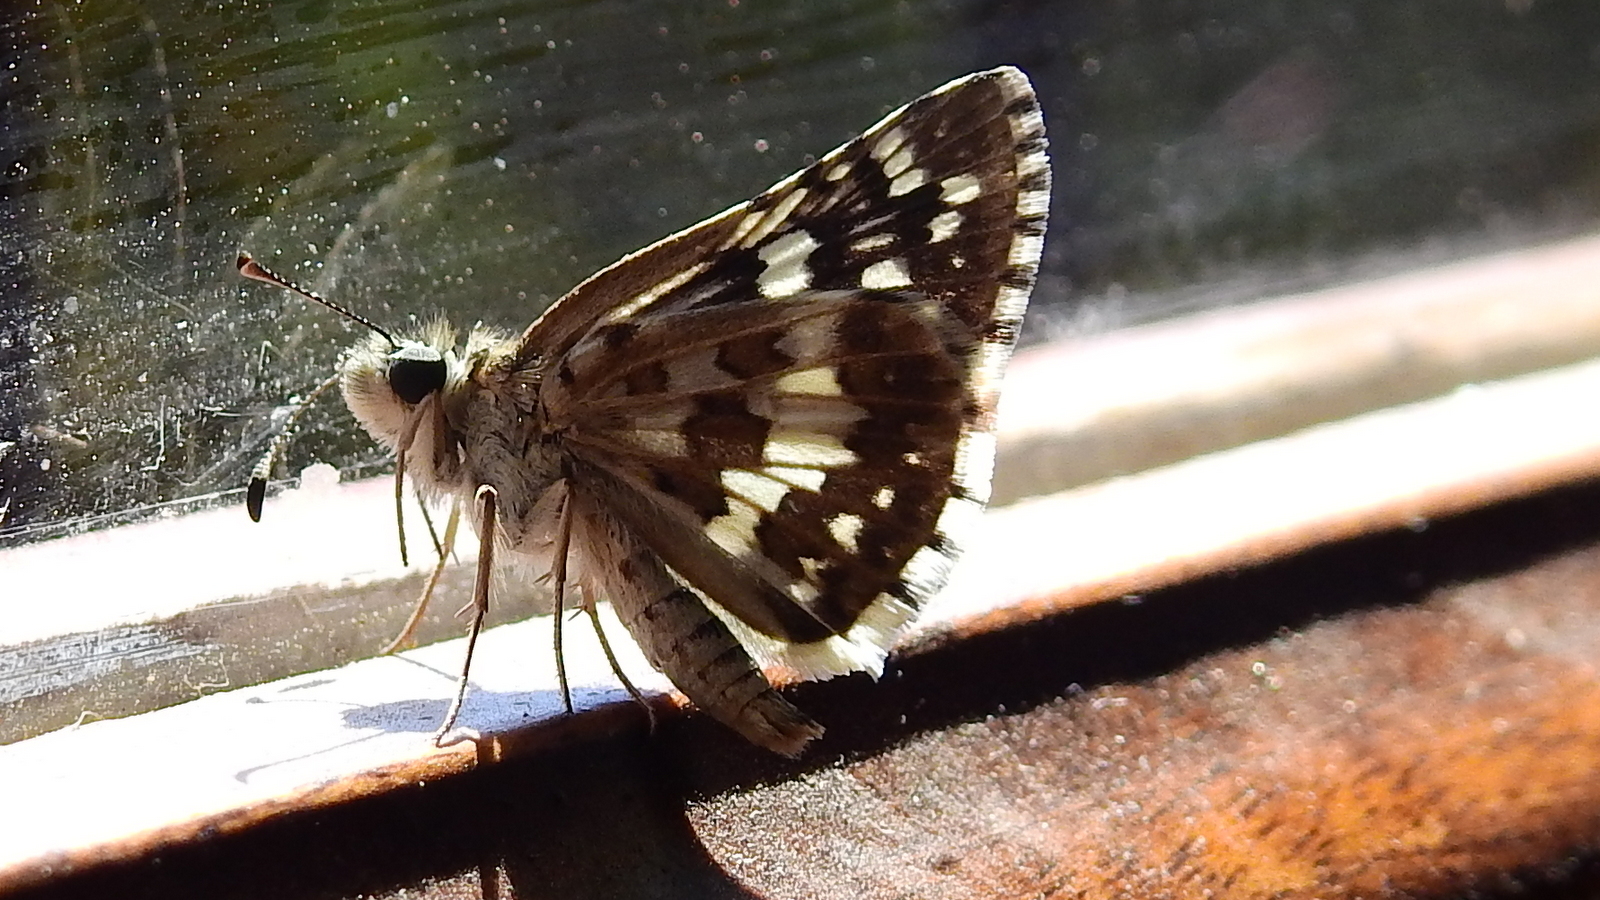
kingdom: Animalia
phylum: Arthropoda
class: Insecta
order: Lepidoptera
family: Hesperiidae
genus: Burnsius
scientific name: Burnsius orcynoides
